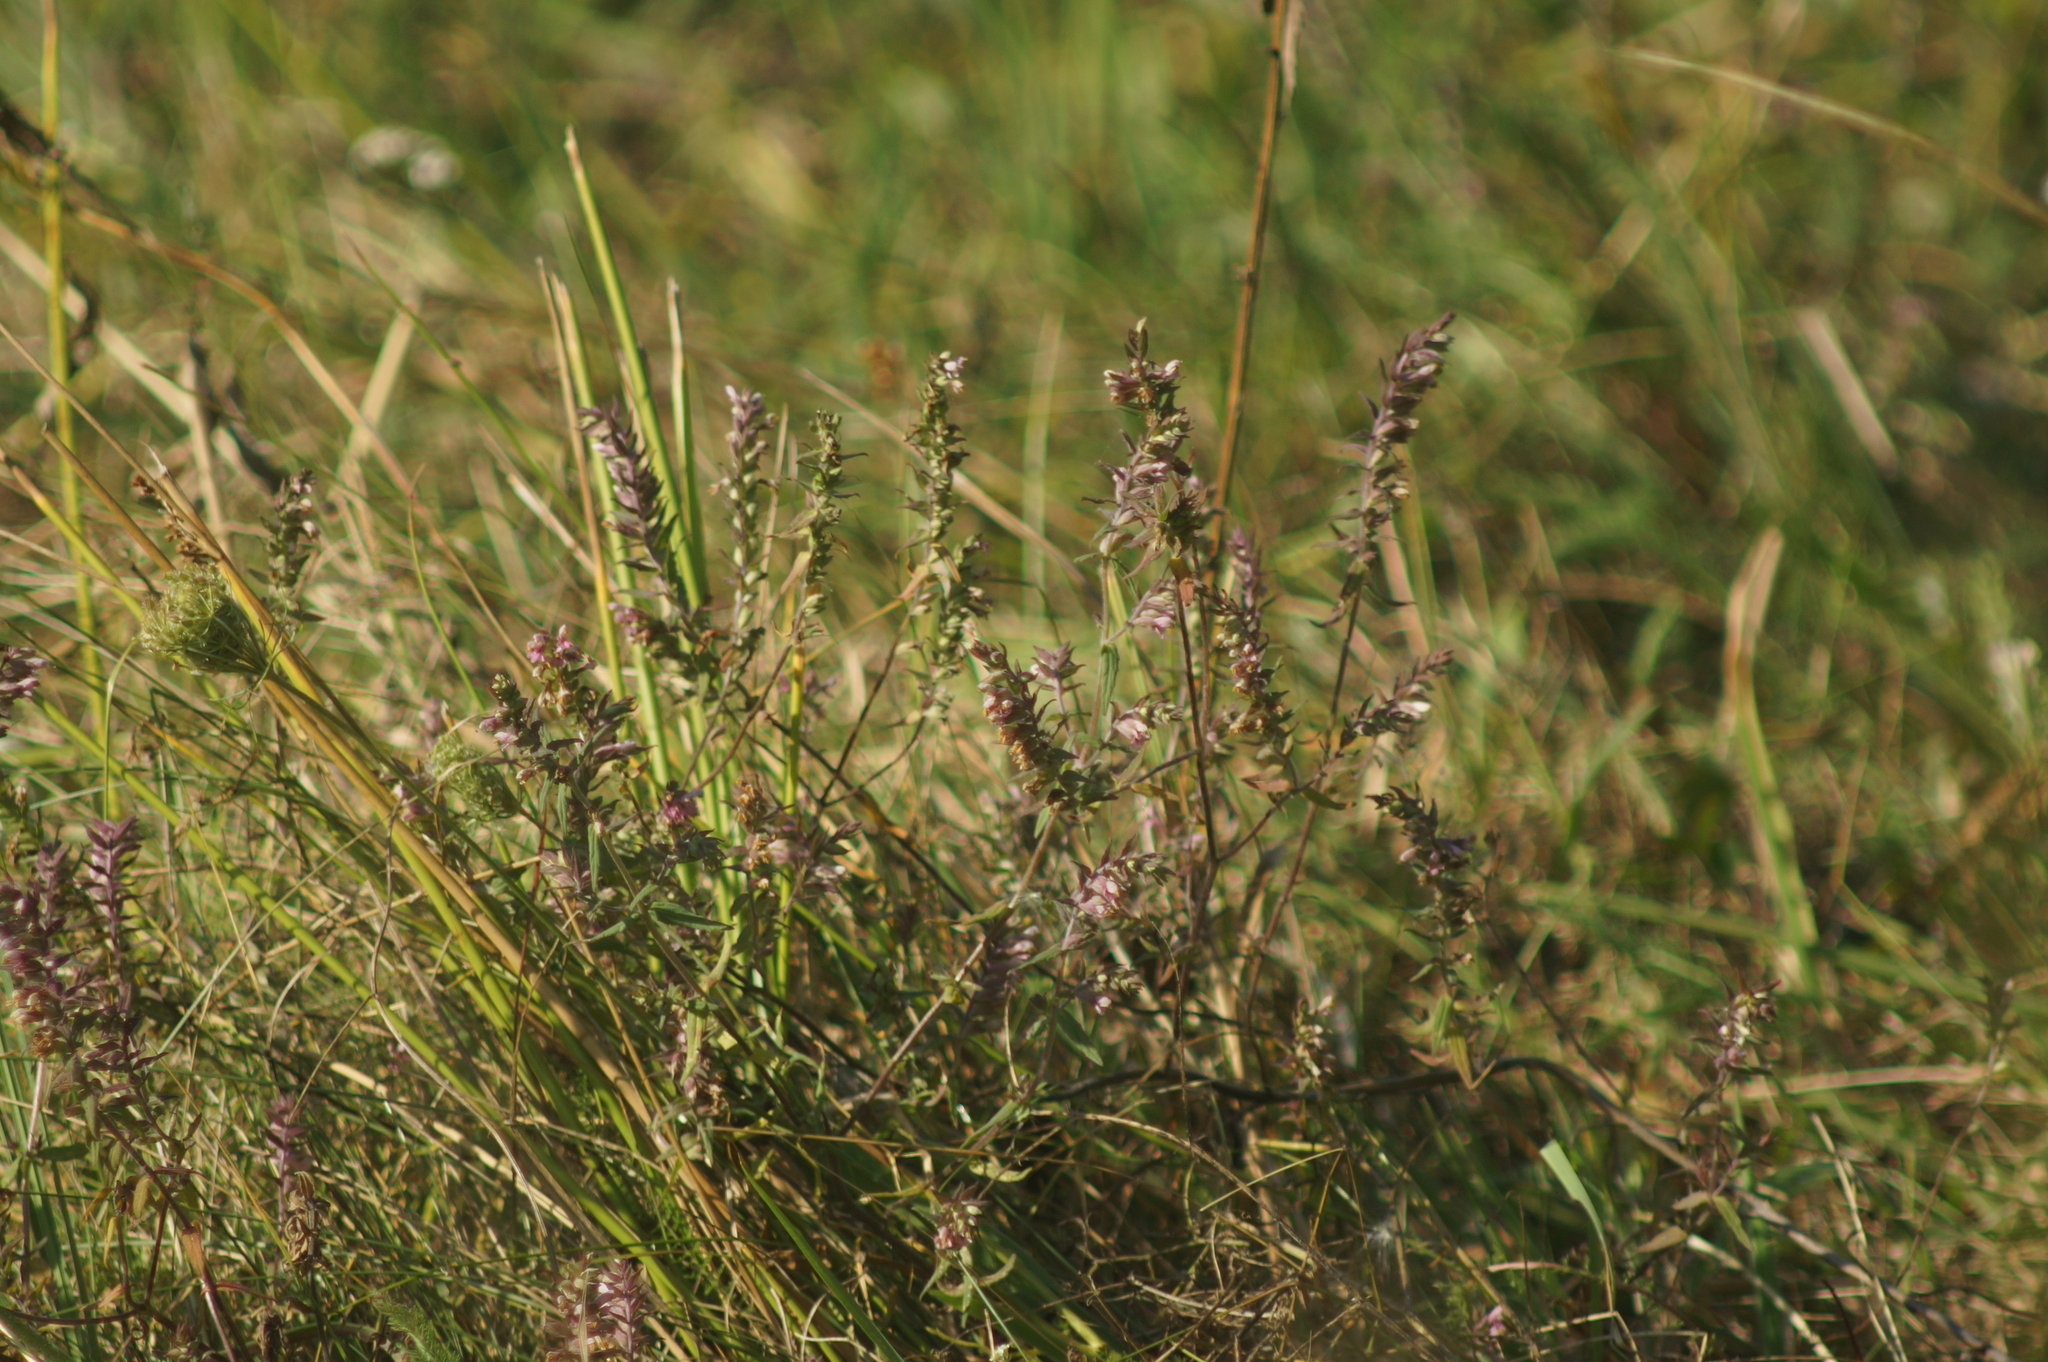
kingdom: Plantae
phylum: Tracheophyta
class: Magnoliopsida
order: Lamiales
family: Orobanchaceae
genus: Odontites
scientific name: Odontites vulgaris
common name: Broomrape
